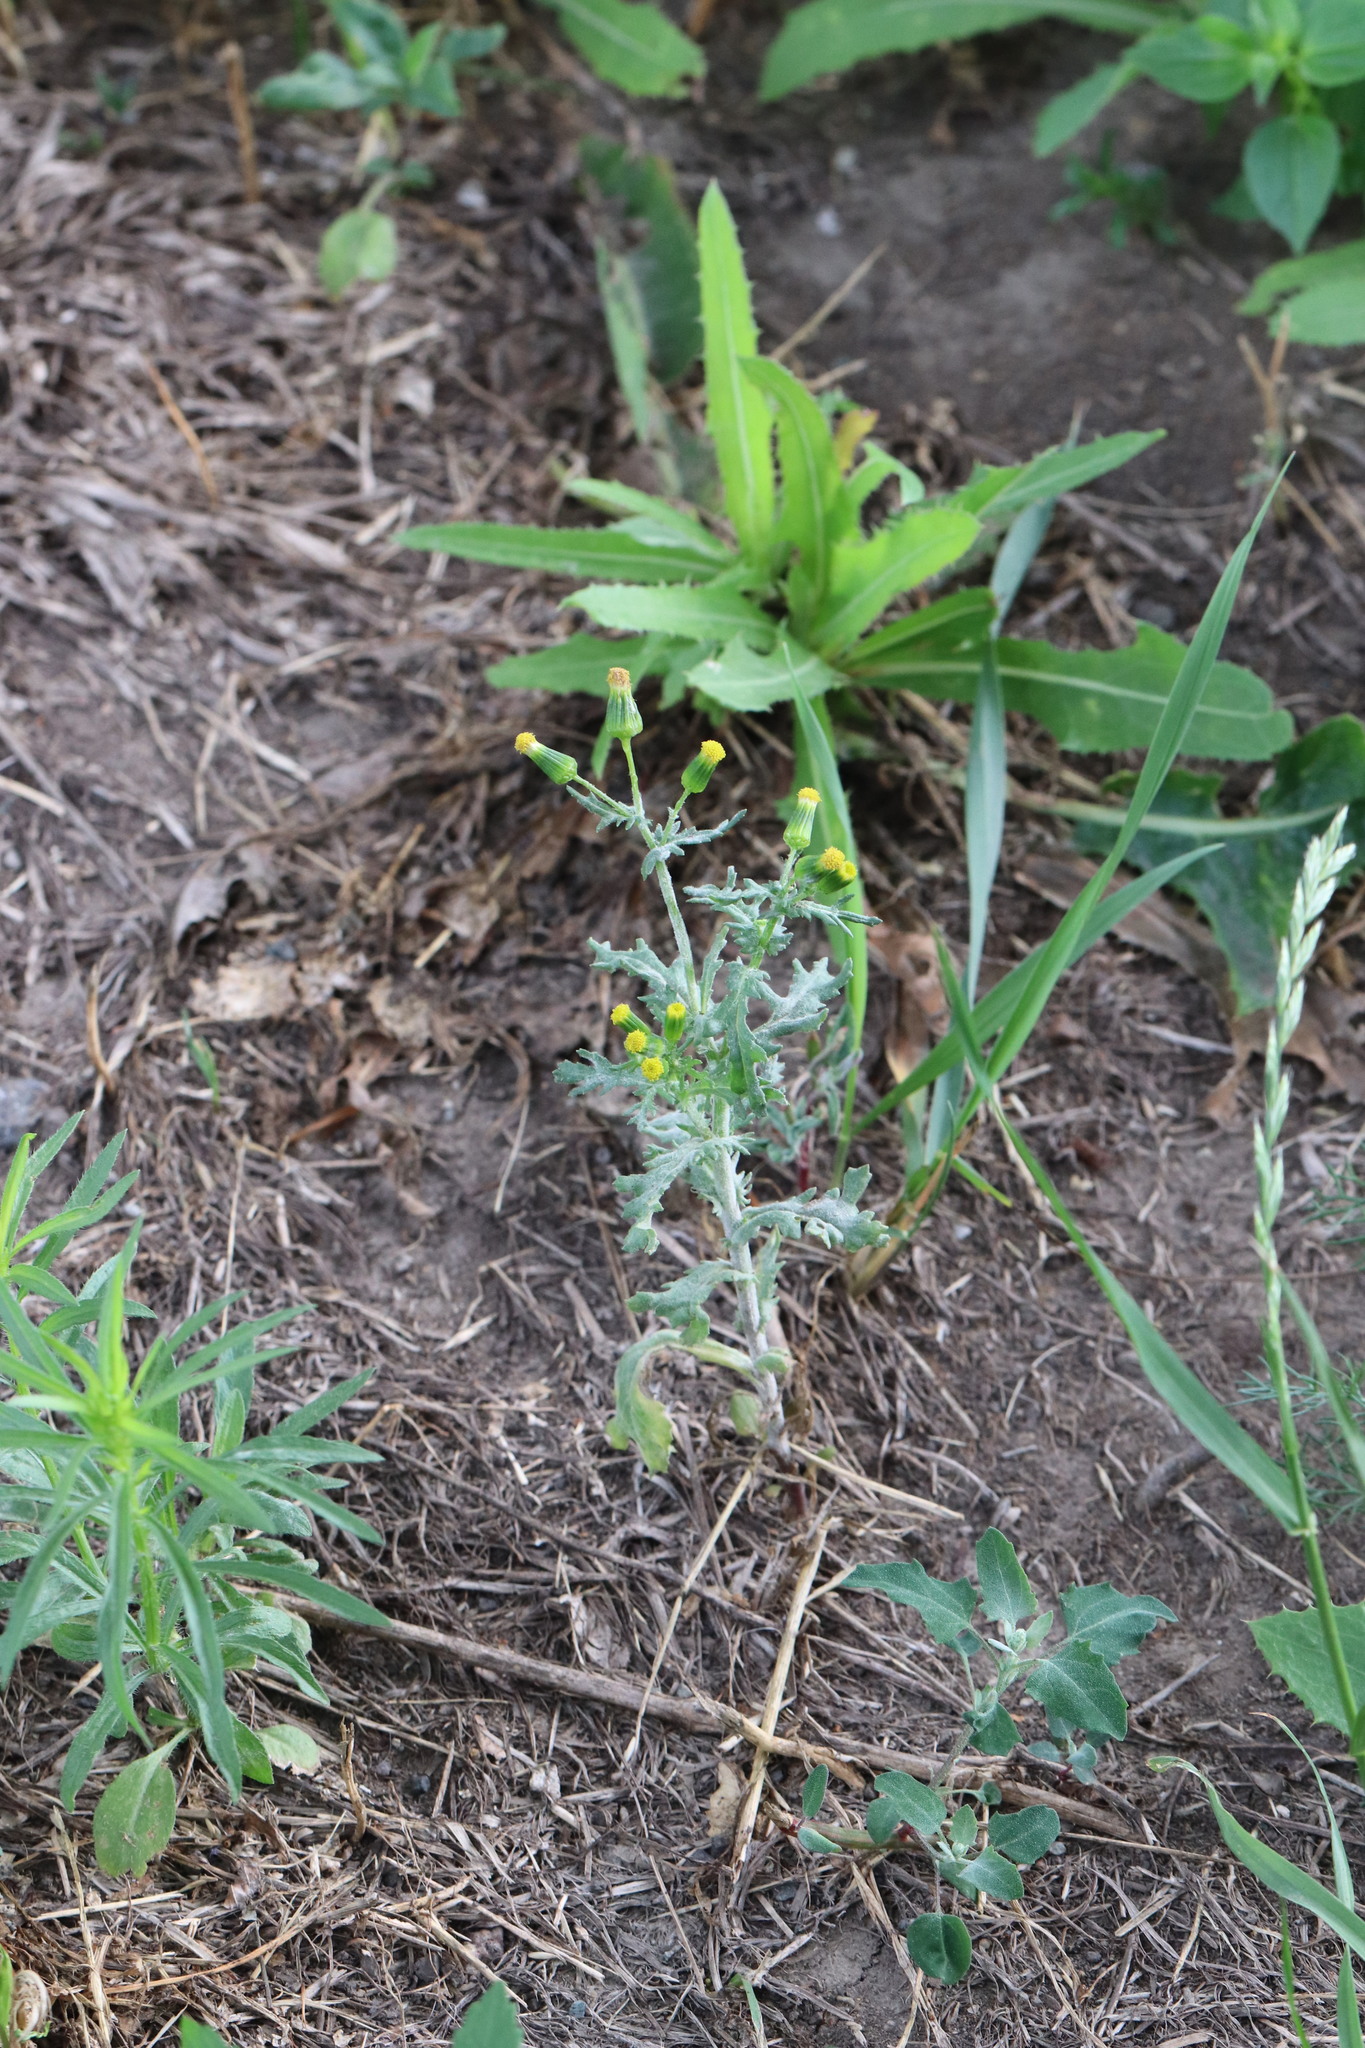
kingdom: Plantae
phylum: Tracheophyta
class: Magnoliopsida
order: Asterales
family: Asteraceae
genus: Senecio
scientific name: Senecio vulgaris
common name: Old-man-in-the-spring
